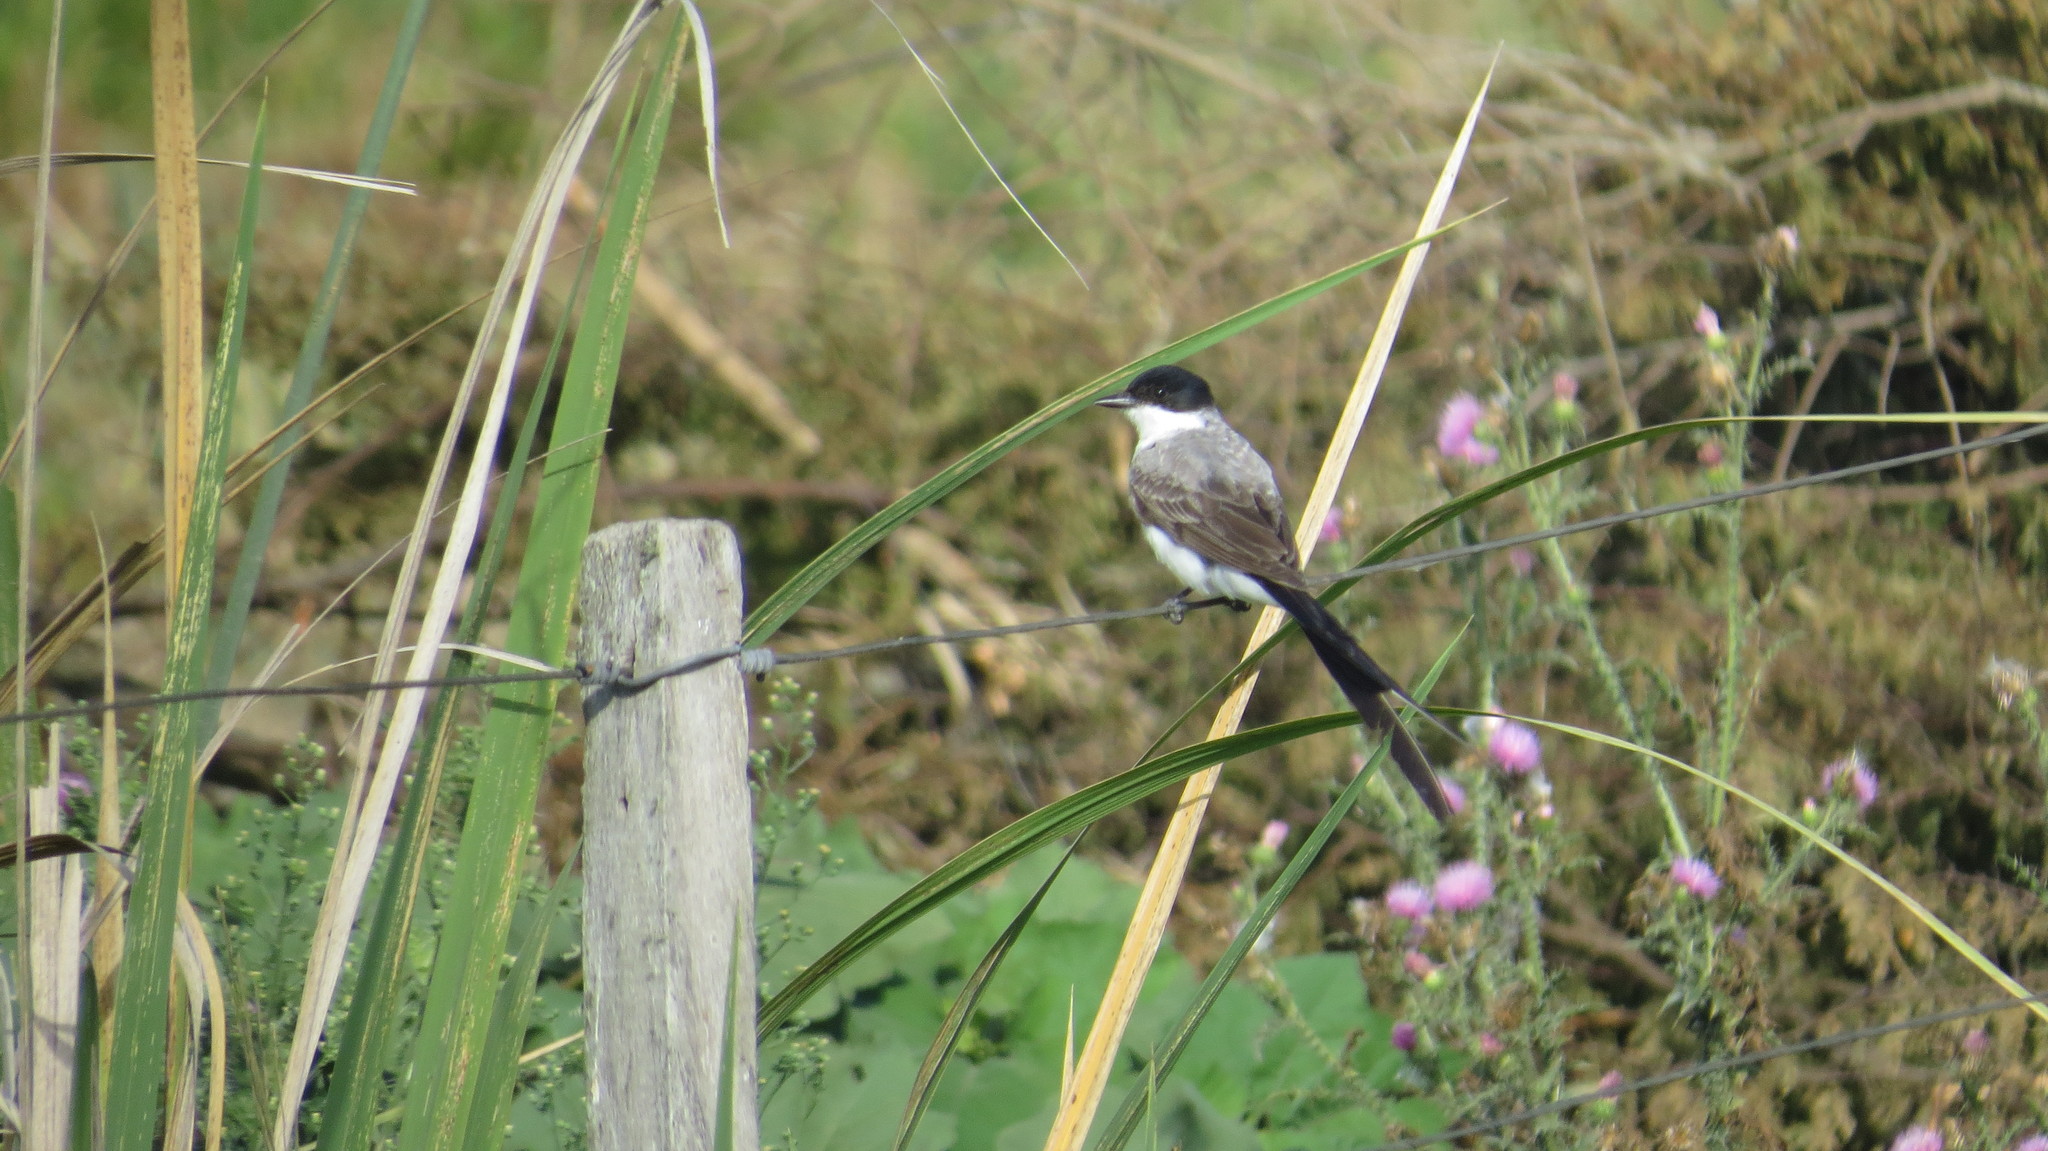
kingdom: Animalia
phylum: Chordata
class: Aves
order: Passeriformes
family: Tyrannidae
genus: Tyrannus
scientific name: Tyrannus savana
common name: Fork-tailed flycatcher
